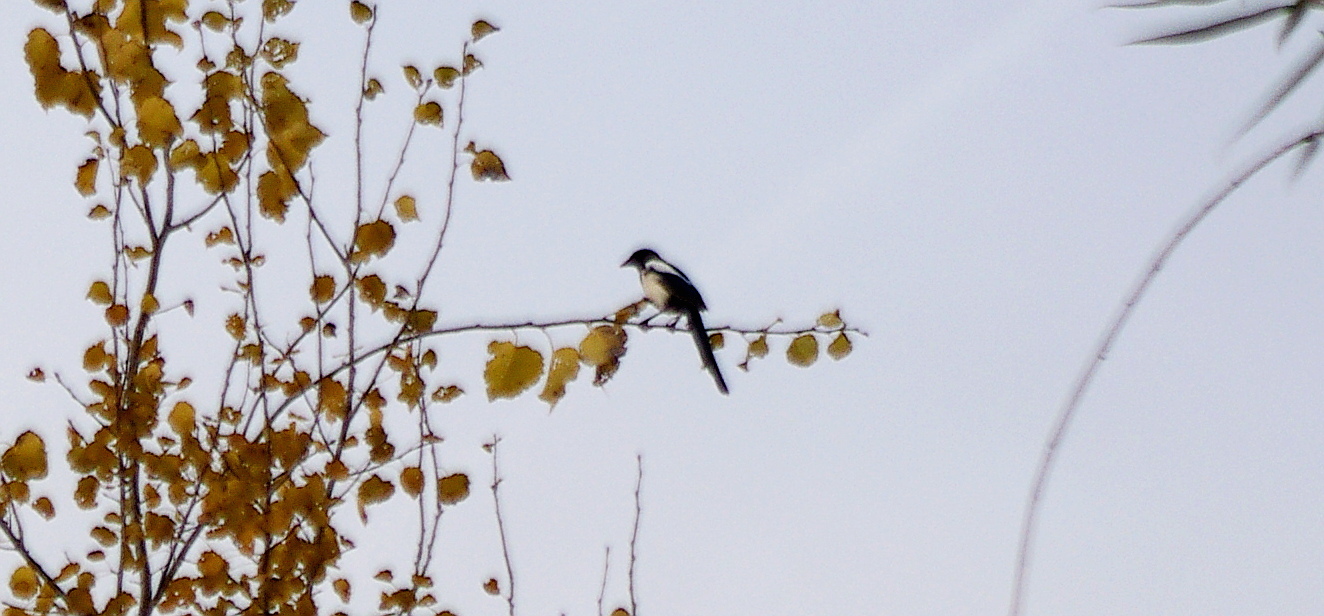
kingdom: Animalia
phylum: Chordata
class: Aves
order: Passeriformes
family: Corvidae
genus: Pica
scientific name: Pica pica
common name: Eurasian magpie
